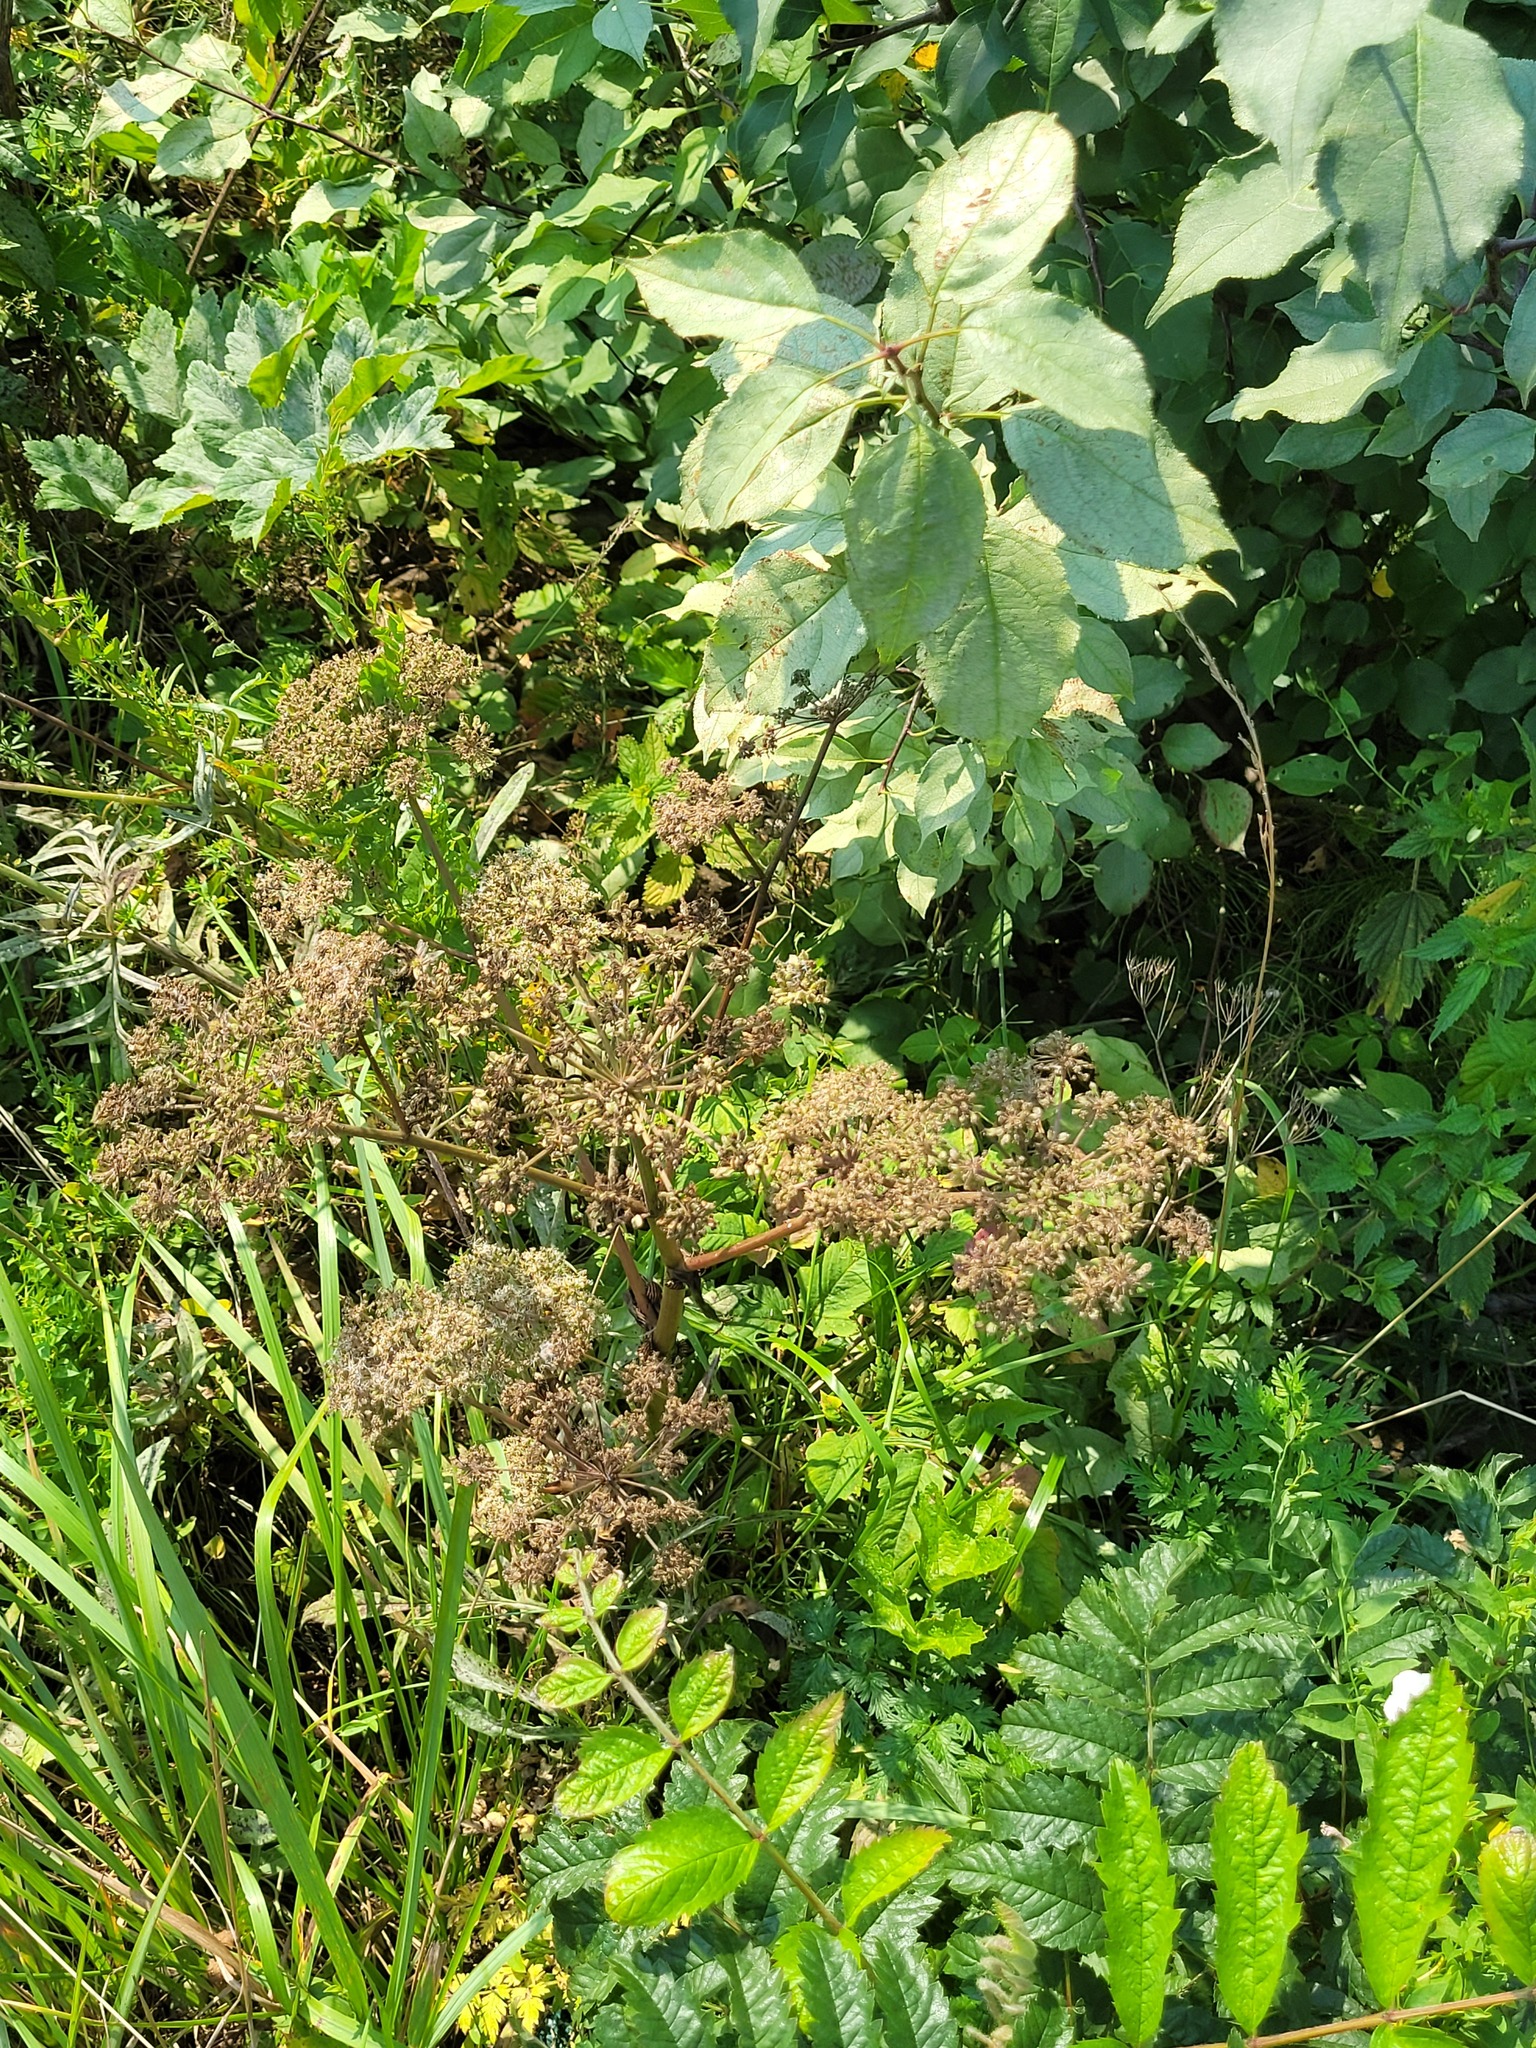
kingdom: Plantae
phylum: Tracheophyta
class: Magnoliopsida
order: Apiales
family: Apiaceae
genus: Angelica
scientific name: Angelica sylvestris
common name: Wild angelica
